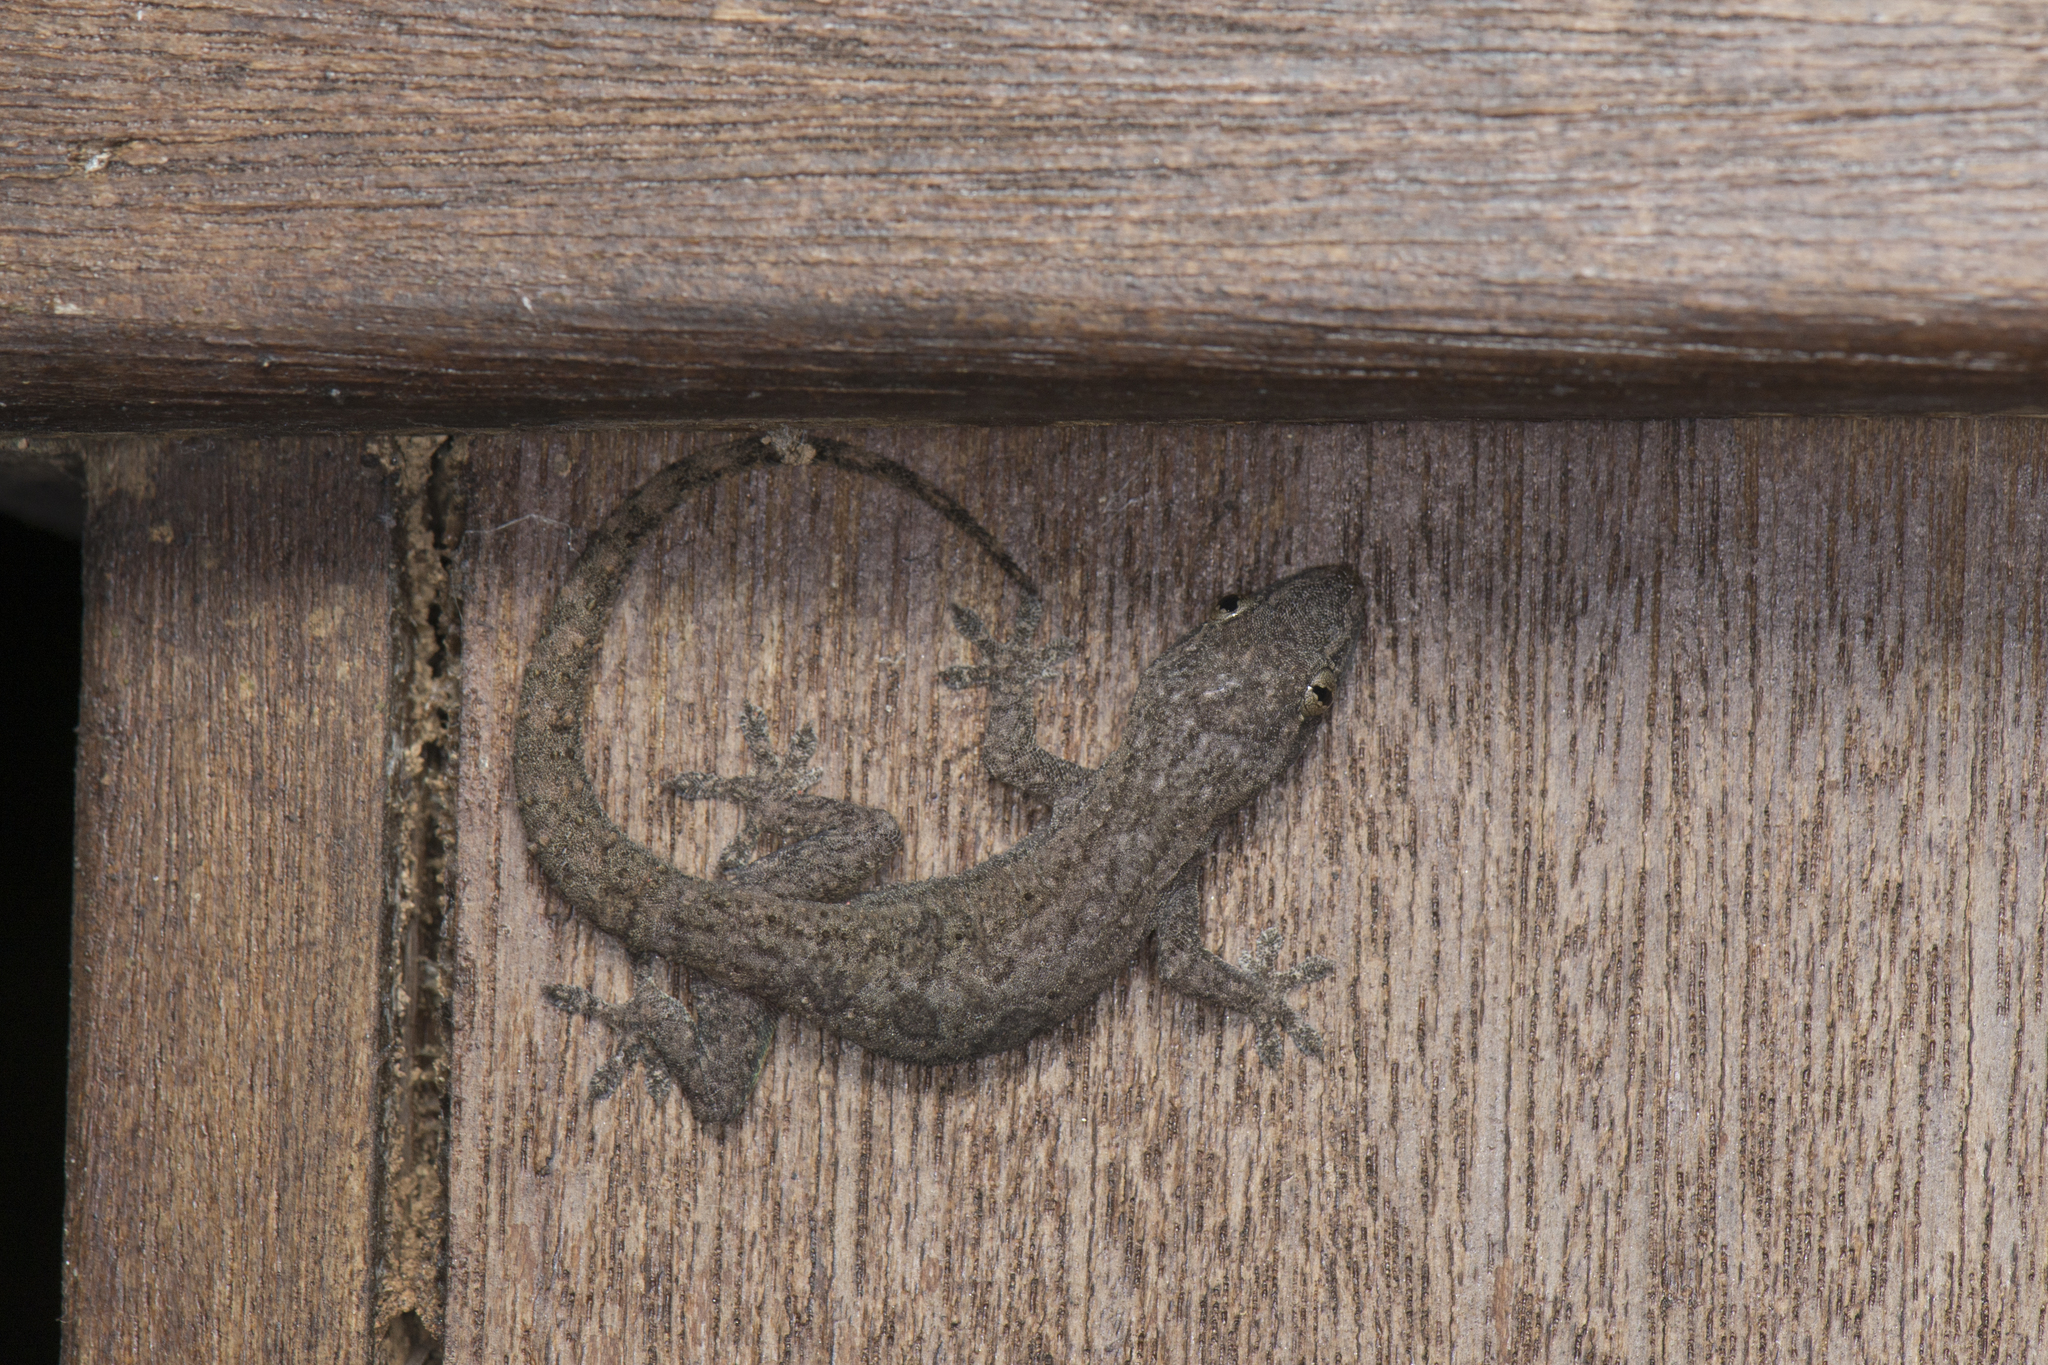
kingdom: Animalia
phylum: Chordata
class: Squamata
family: Gekkonidae
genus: Hemidactylus
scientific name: Hemidactylus frenatus
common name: Common house gecko
